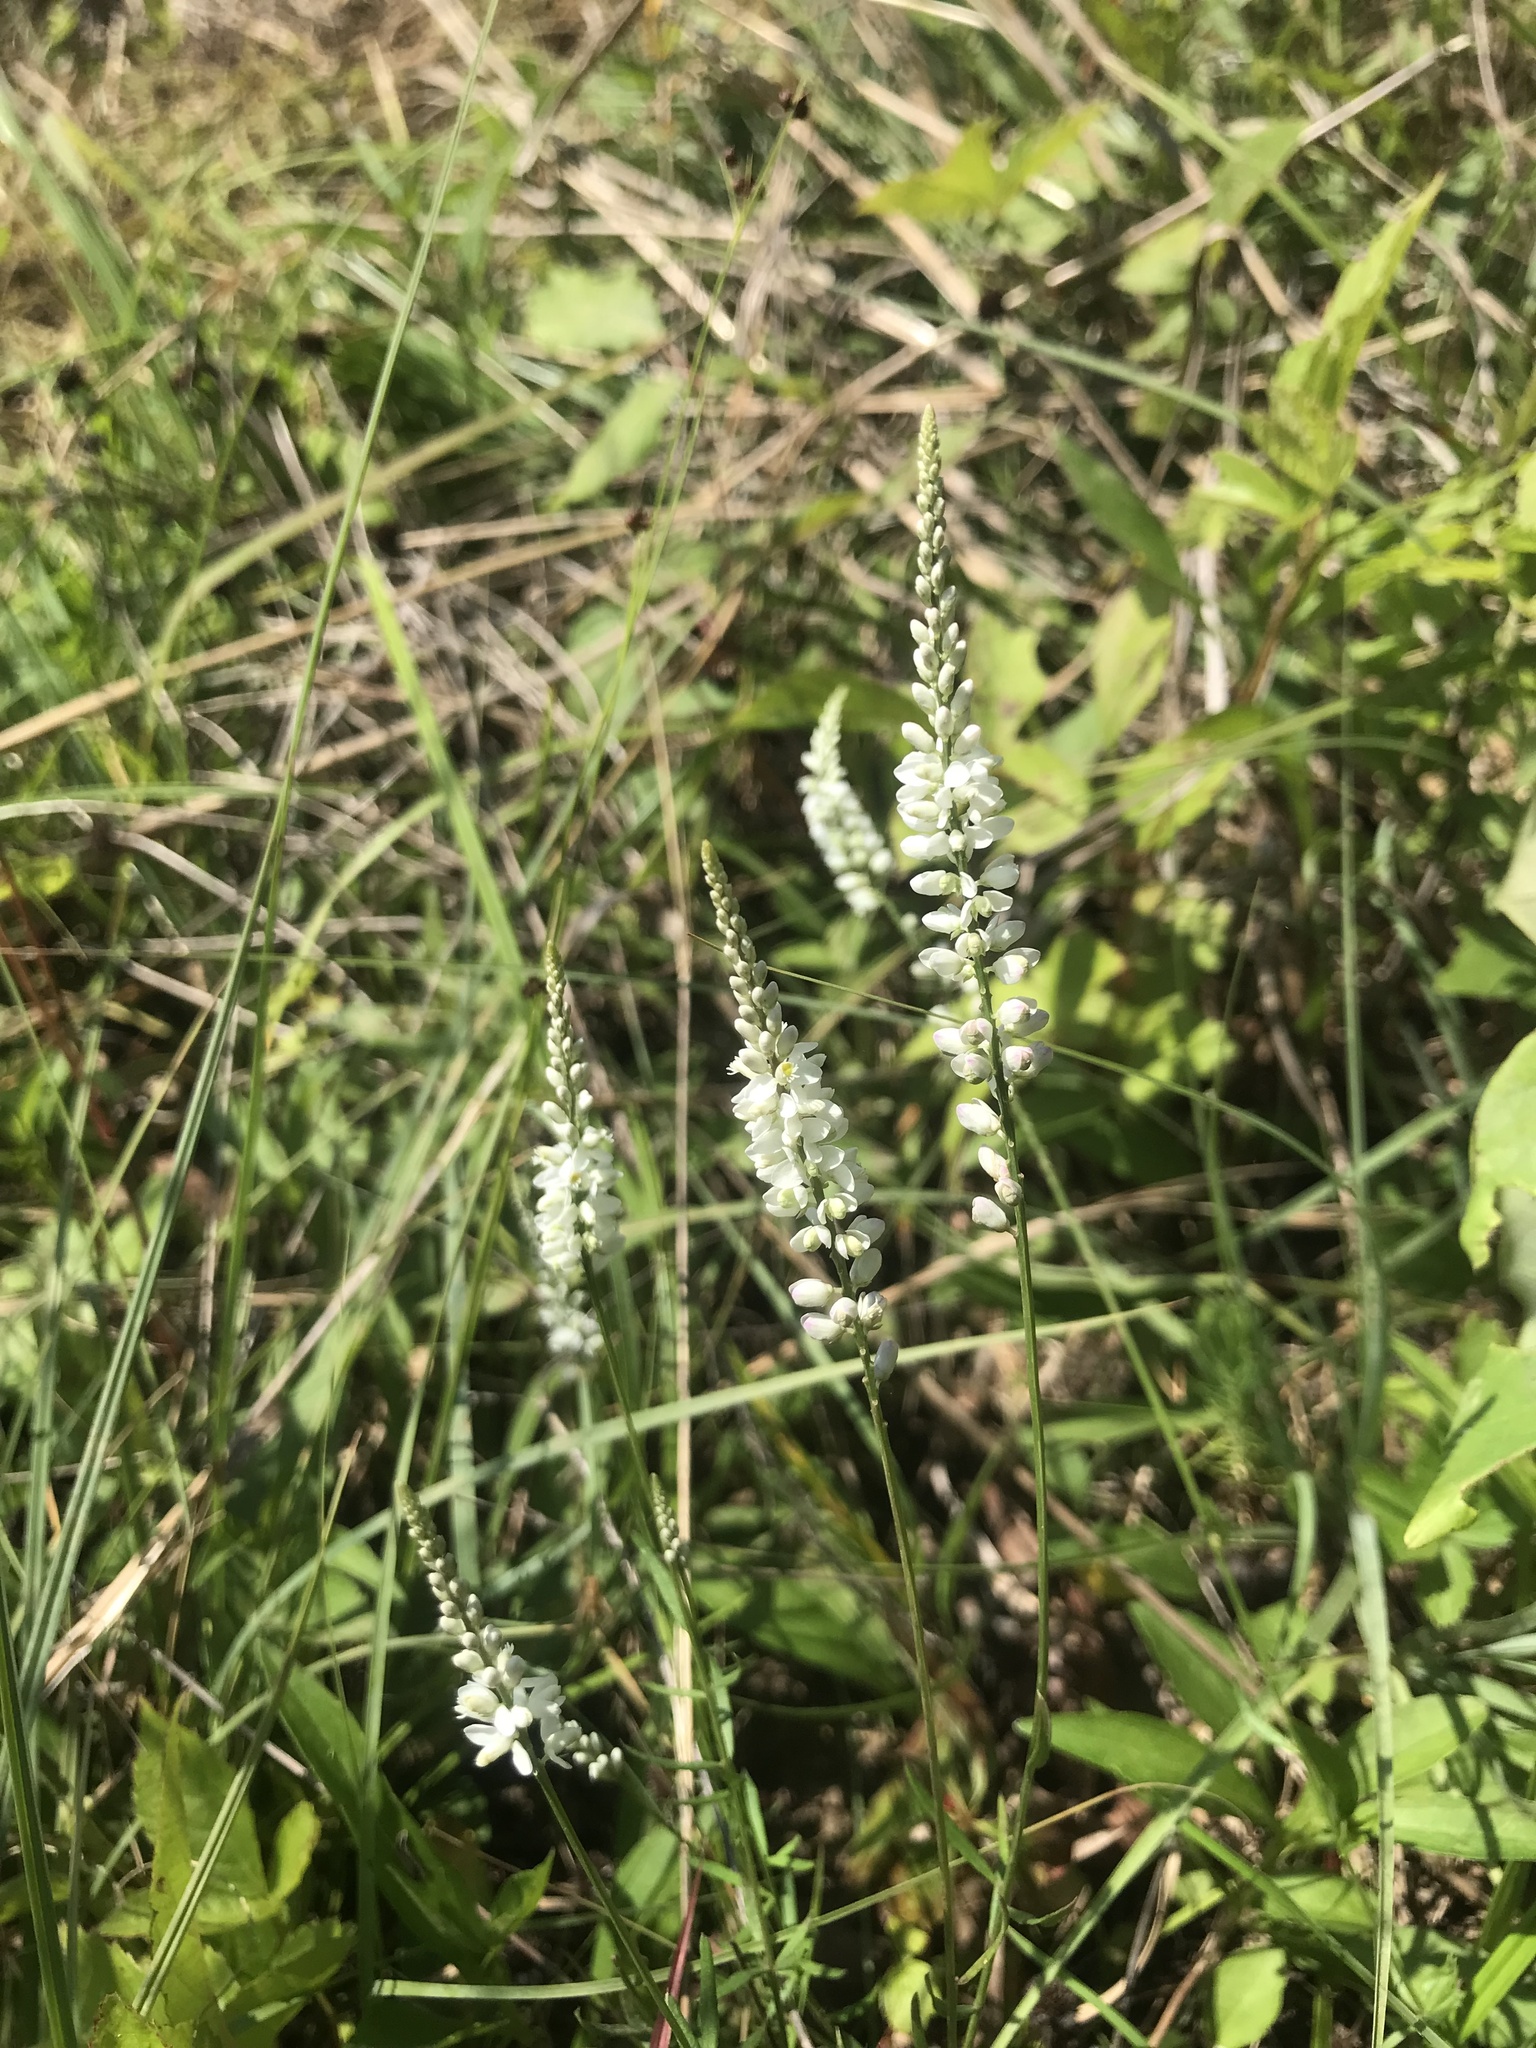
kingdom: Plantae
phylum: Tracheophyta
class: Magnoliopsida
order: Fabales
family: Polygalaceae
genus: Polygala
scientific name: Polygala boykinii
